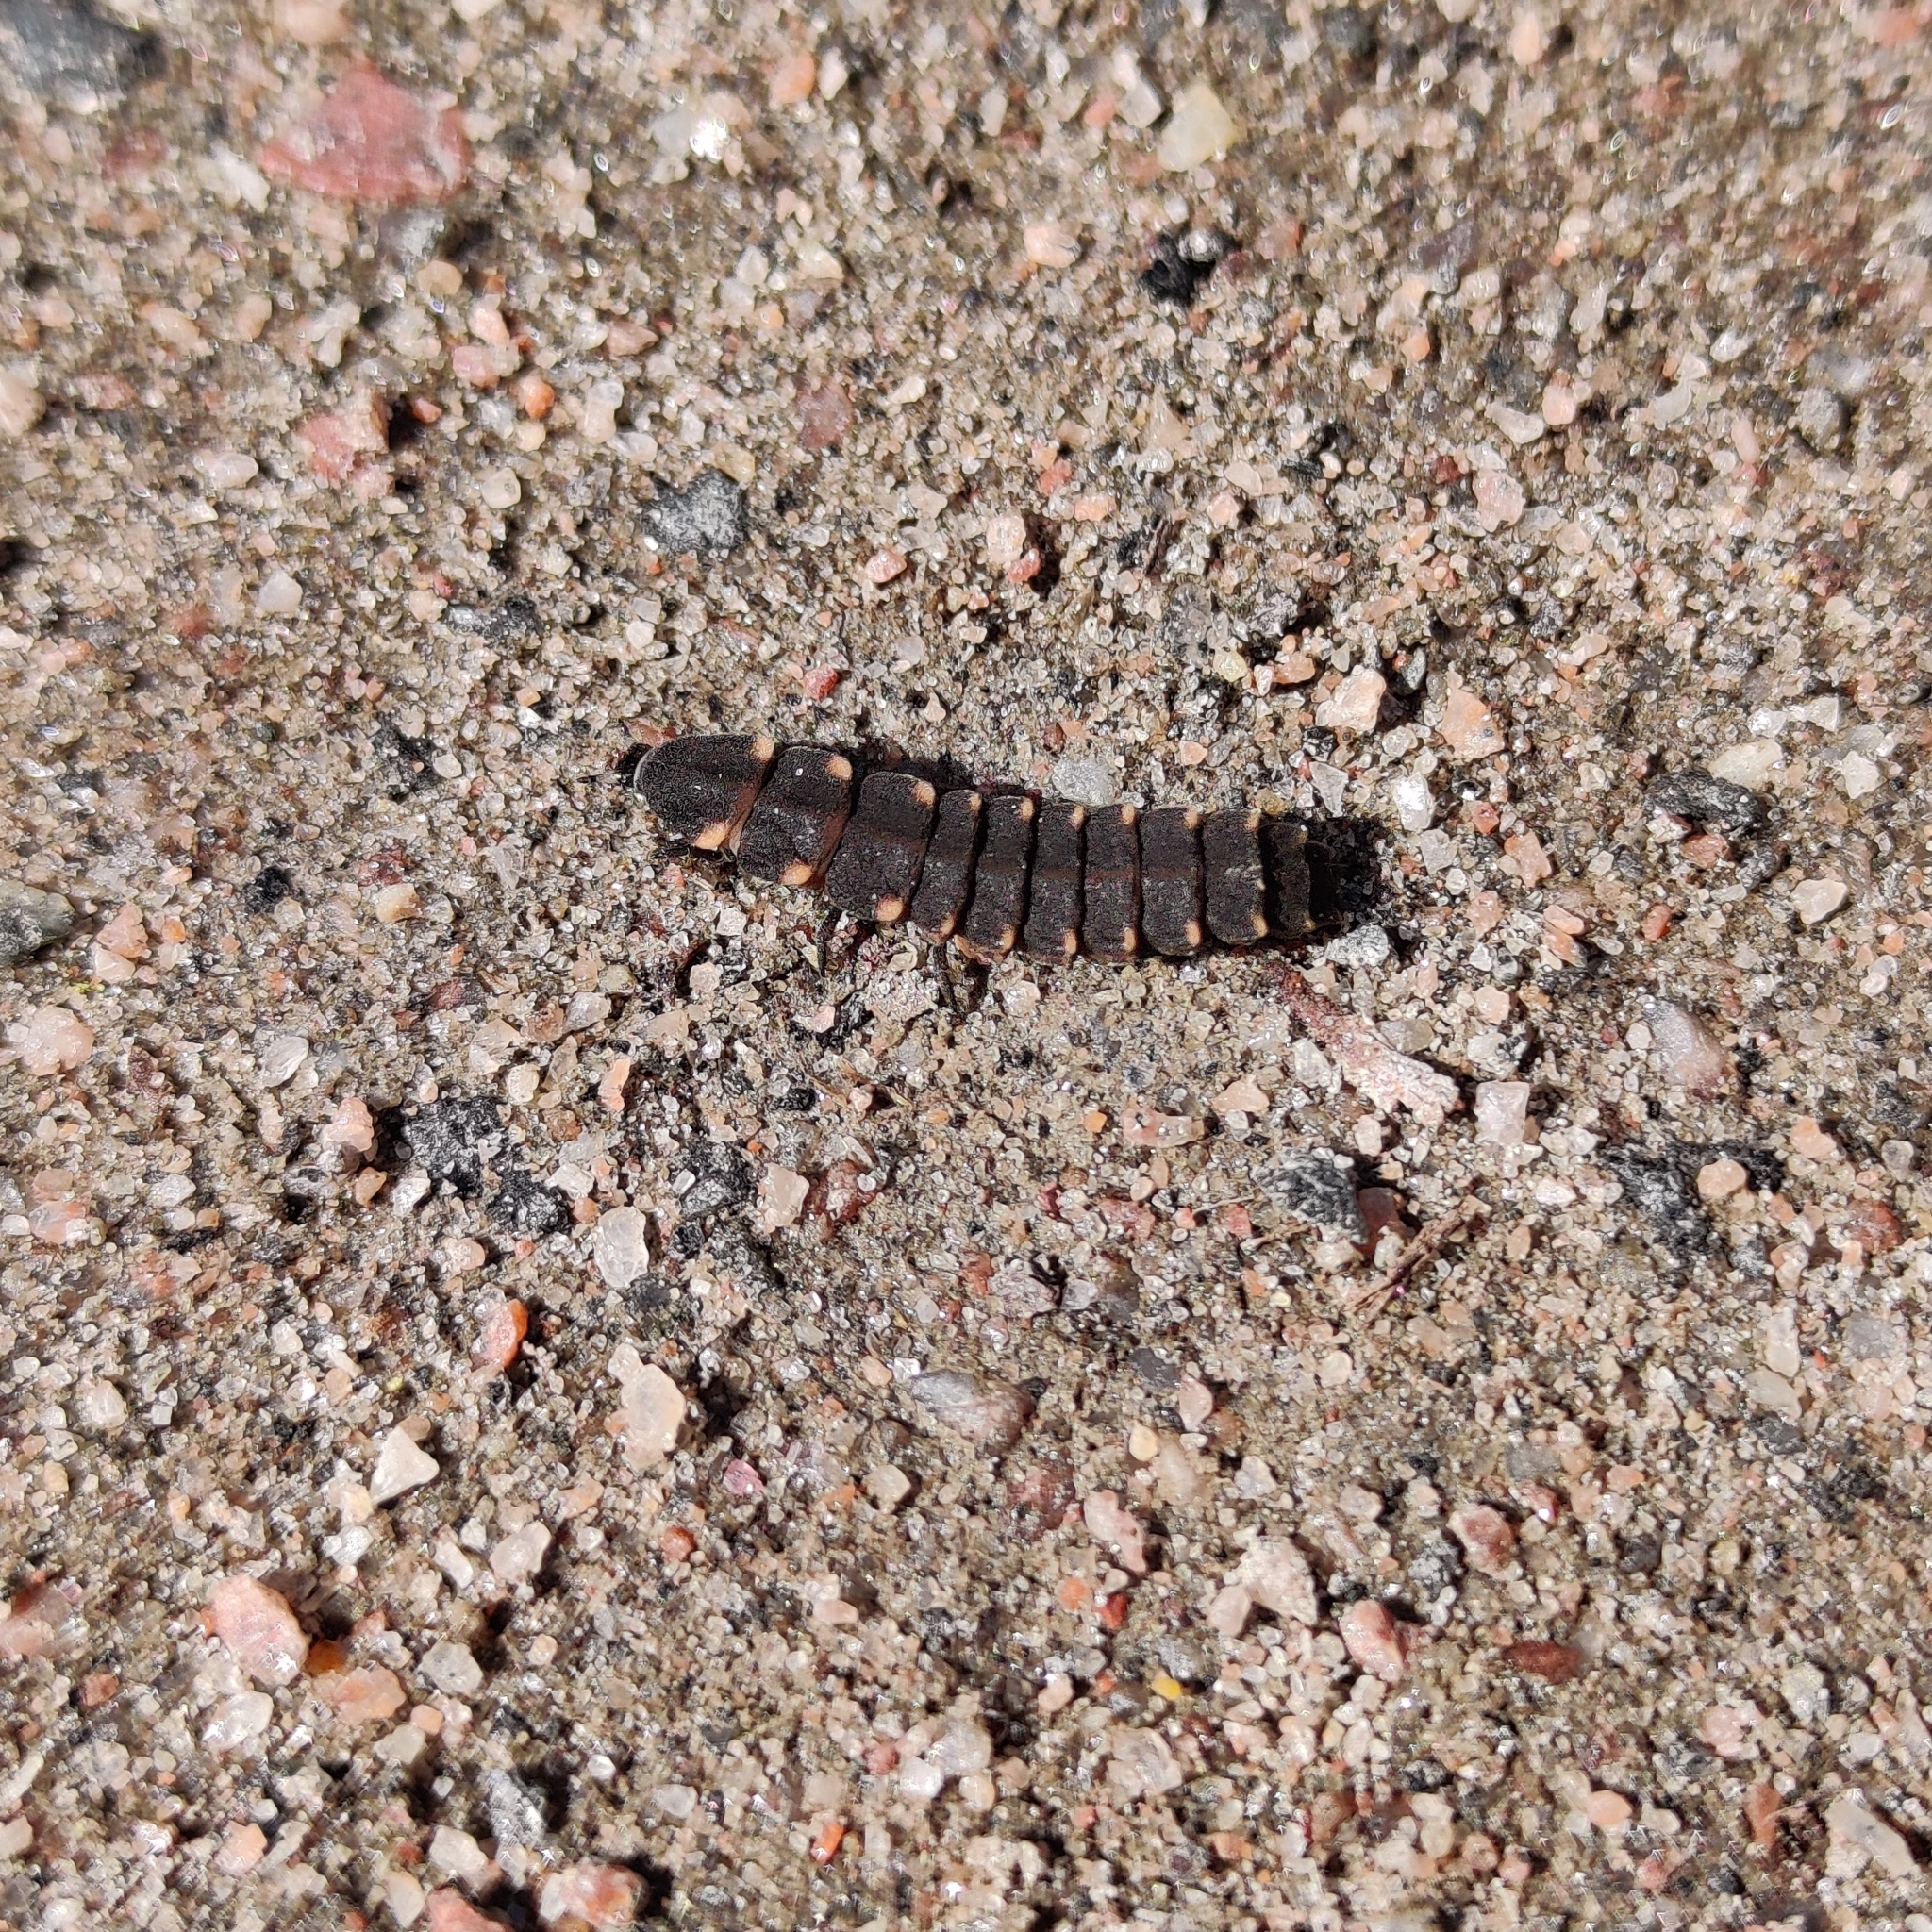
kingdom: Animalia
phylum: Arthropoda
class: Insecta
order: Coleoptera
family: Lampyridae
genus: Lampyris
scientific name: Lampyris noctiluca
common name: Glow-worm
